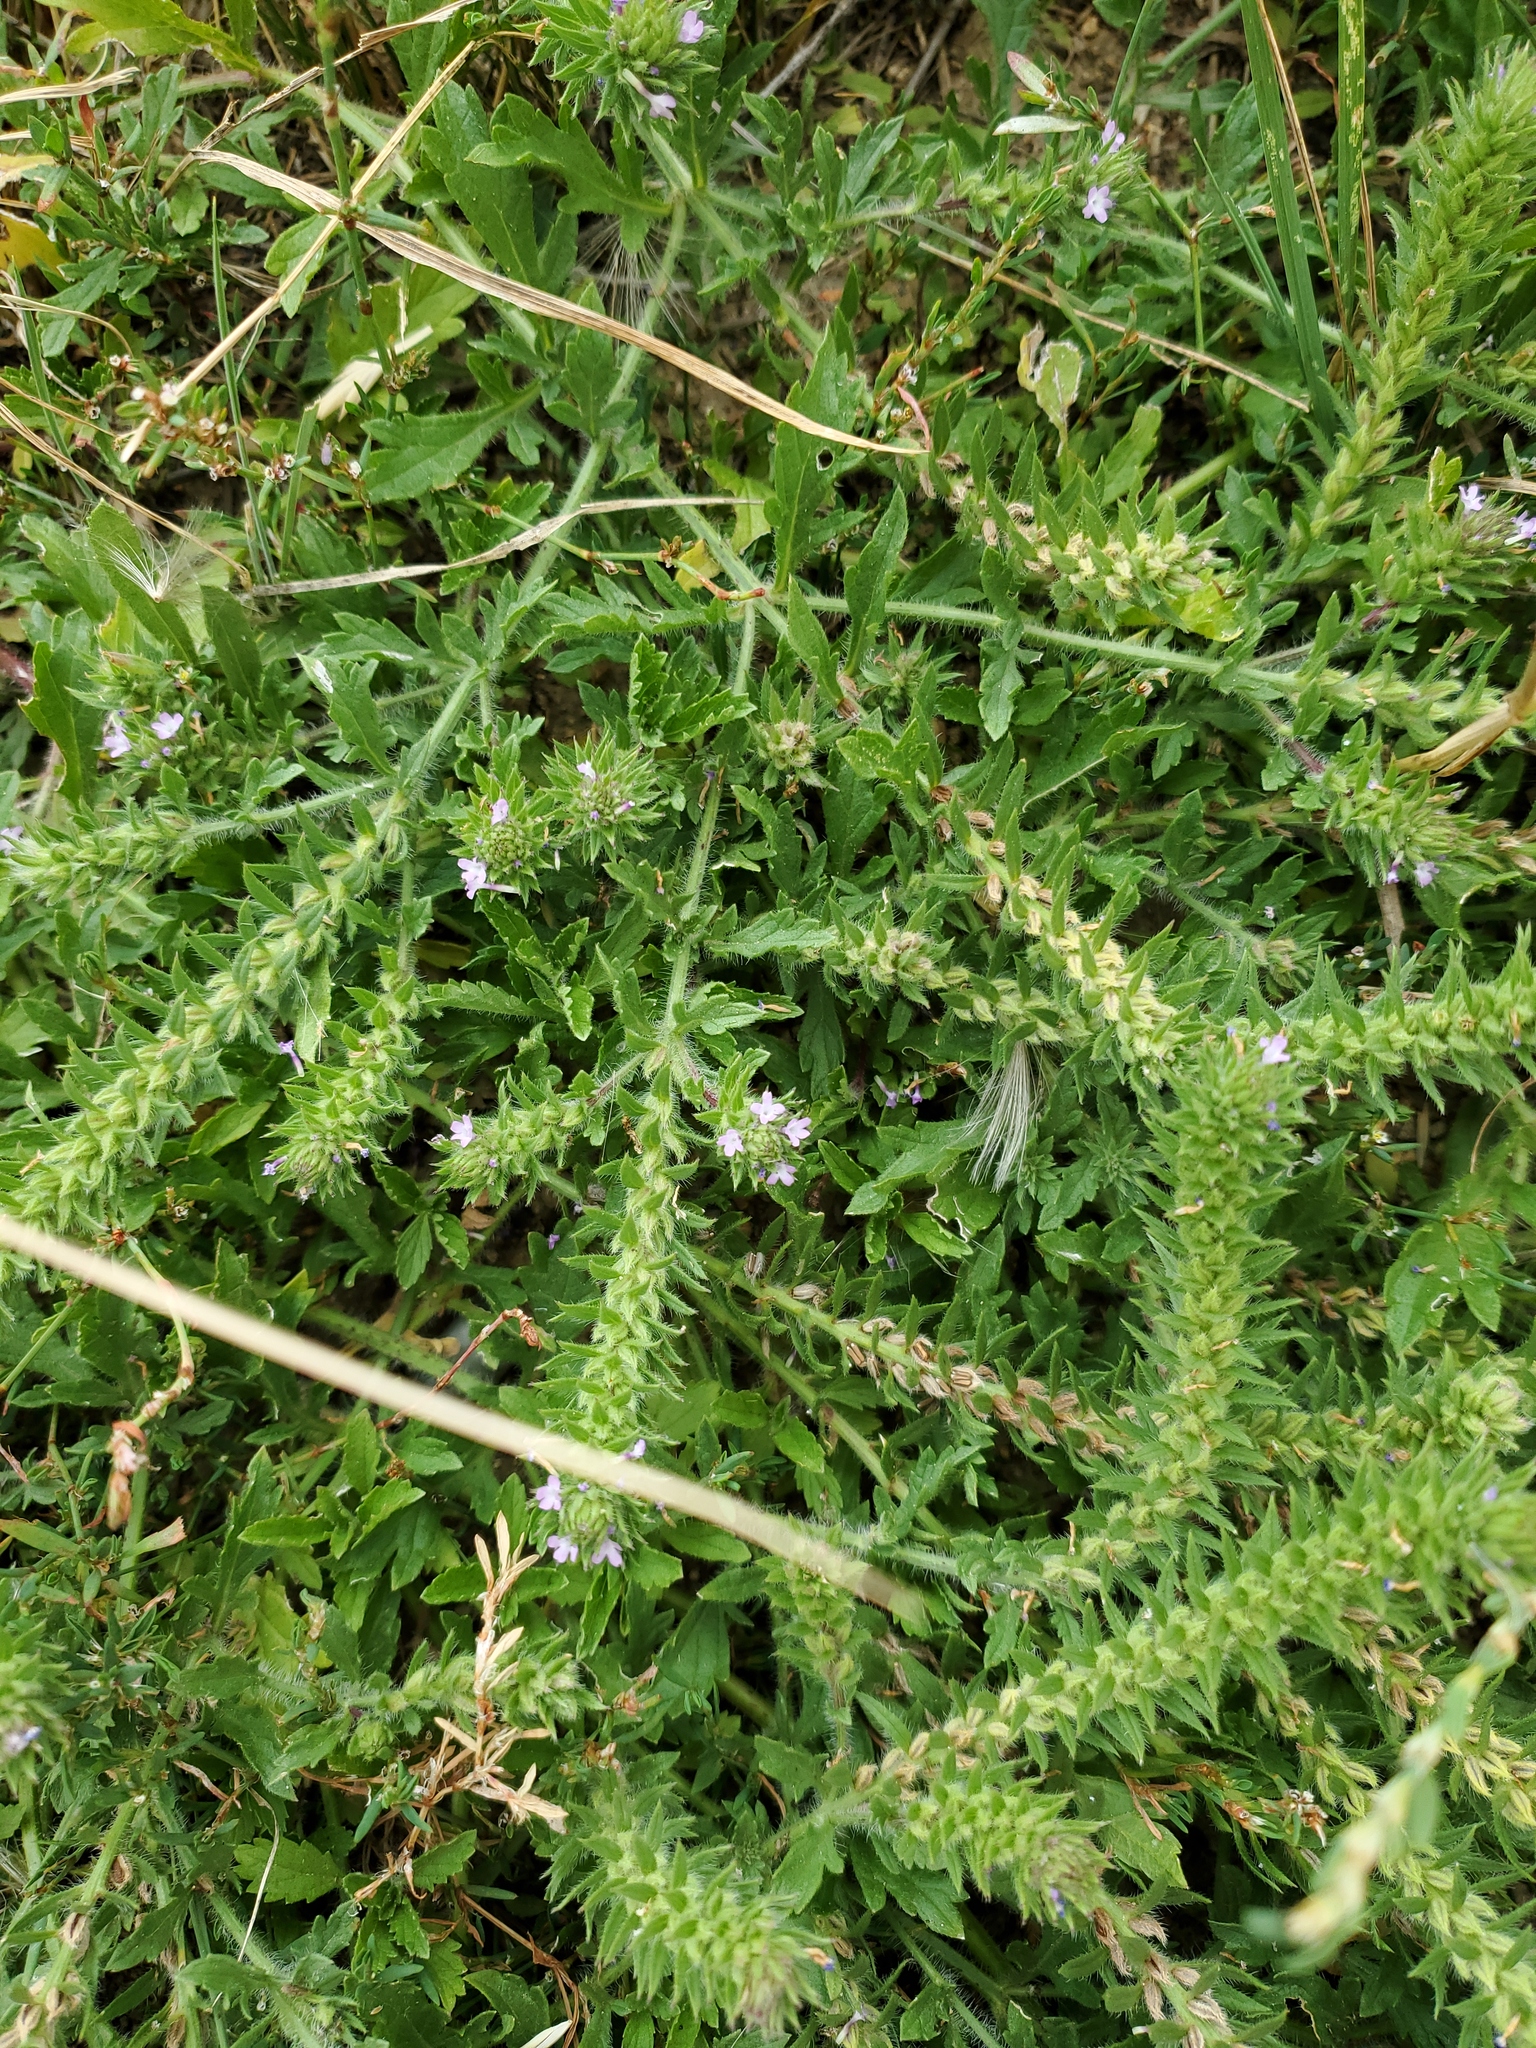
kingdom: Plantae
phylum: Tracheophyta
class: Magnoliopsida
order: Lamiales
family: Verbenaceae
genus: Verbena
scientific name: Verbena bracteata
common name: Bracted vervain
